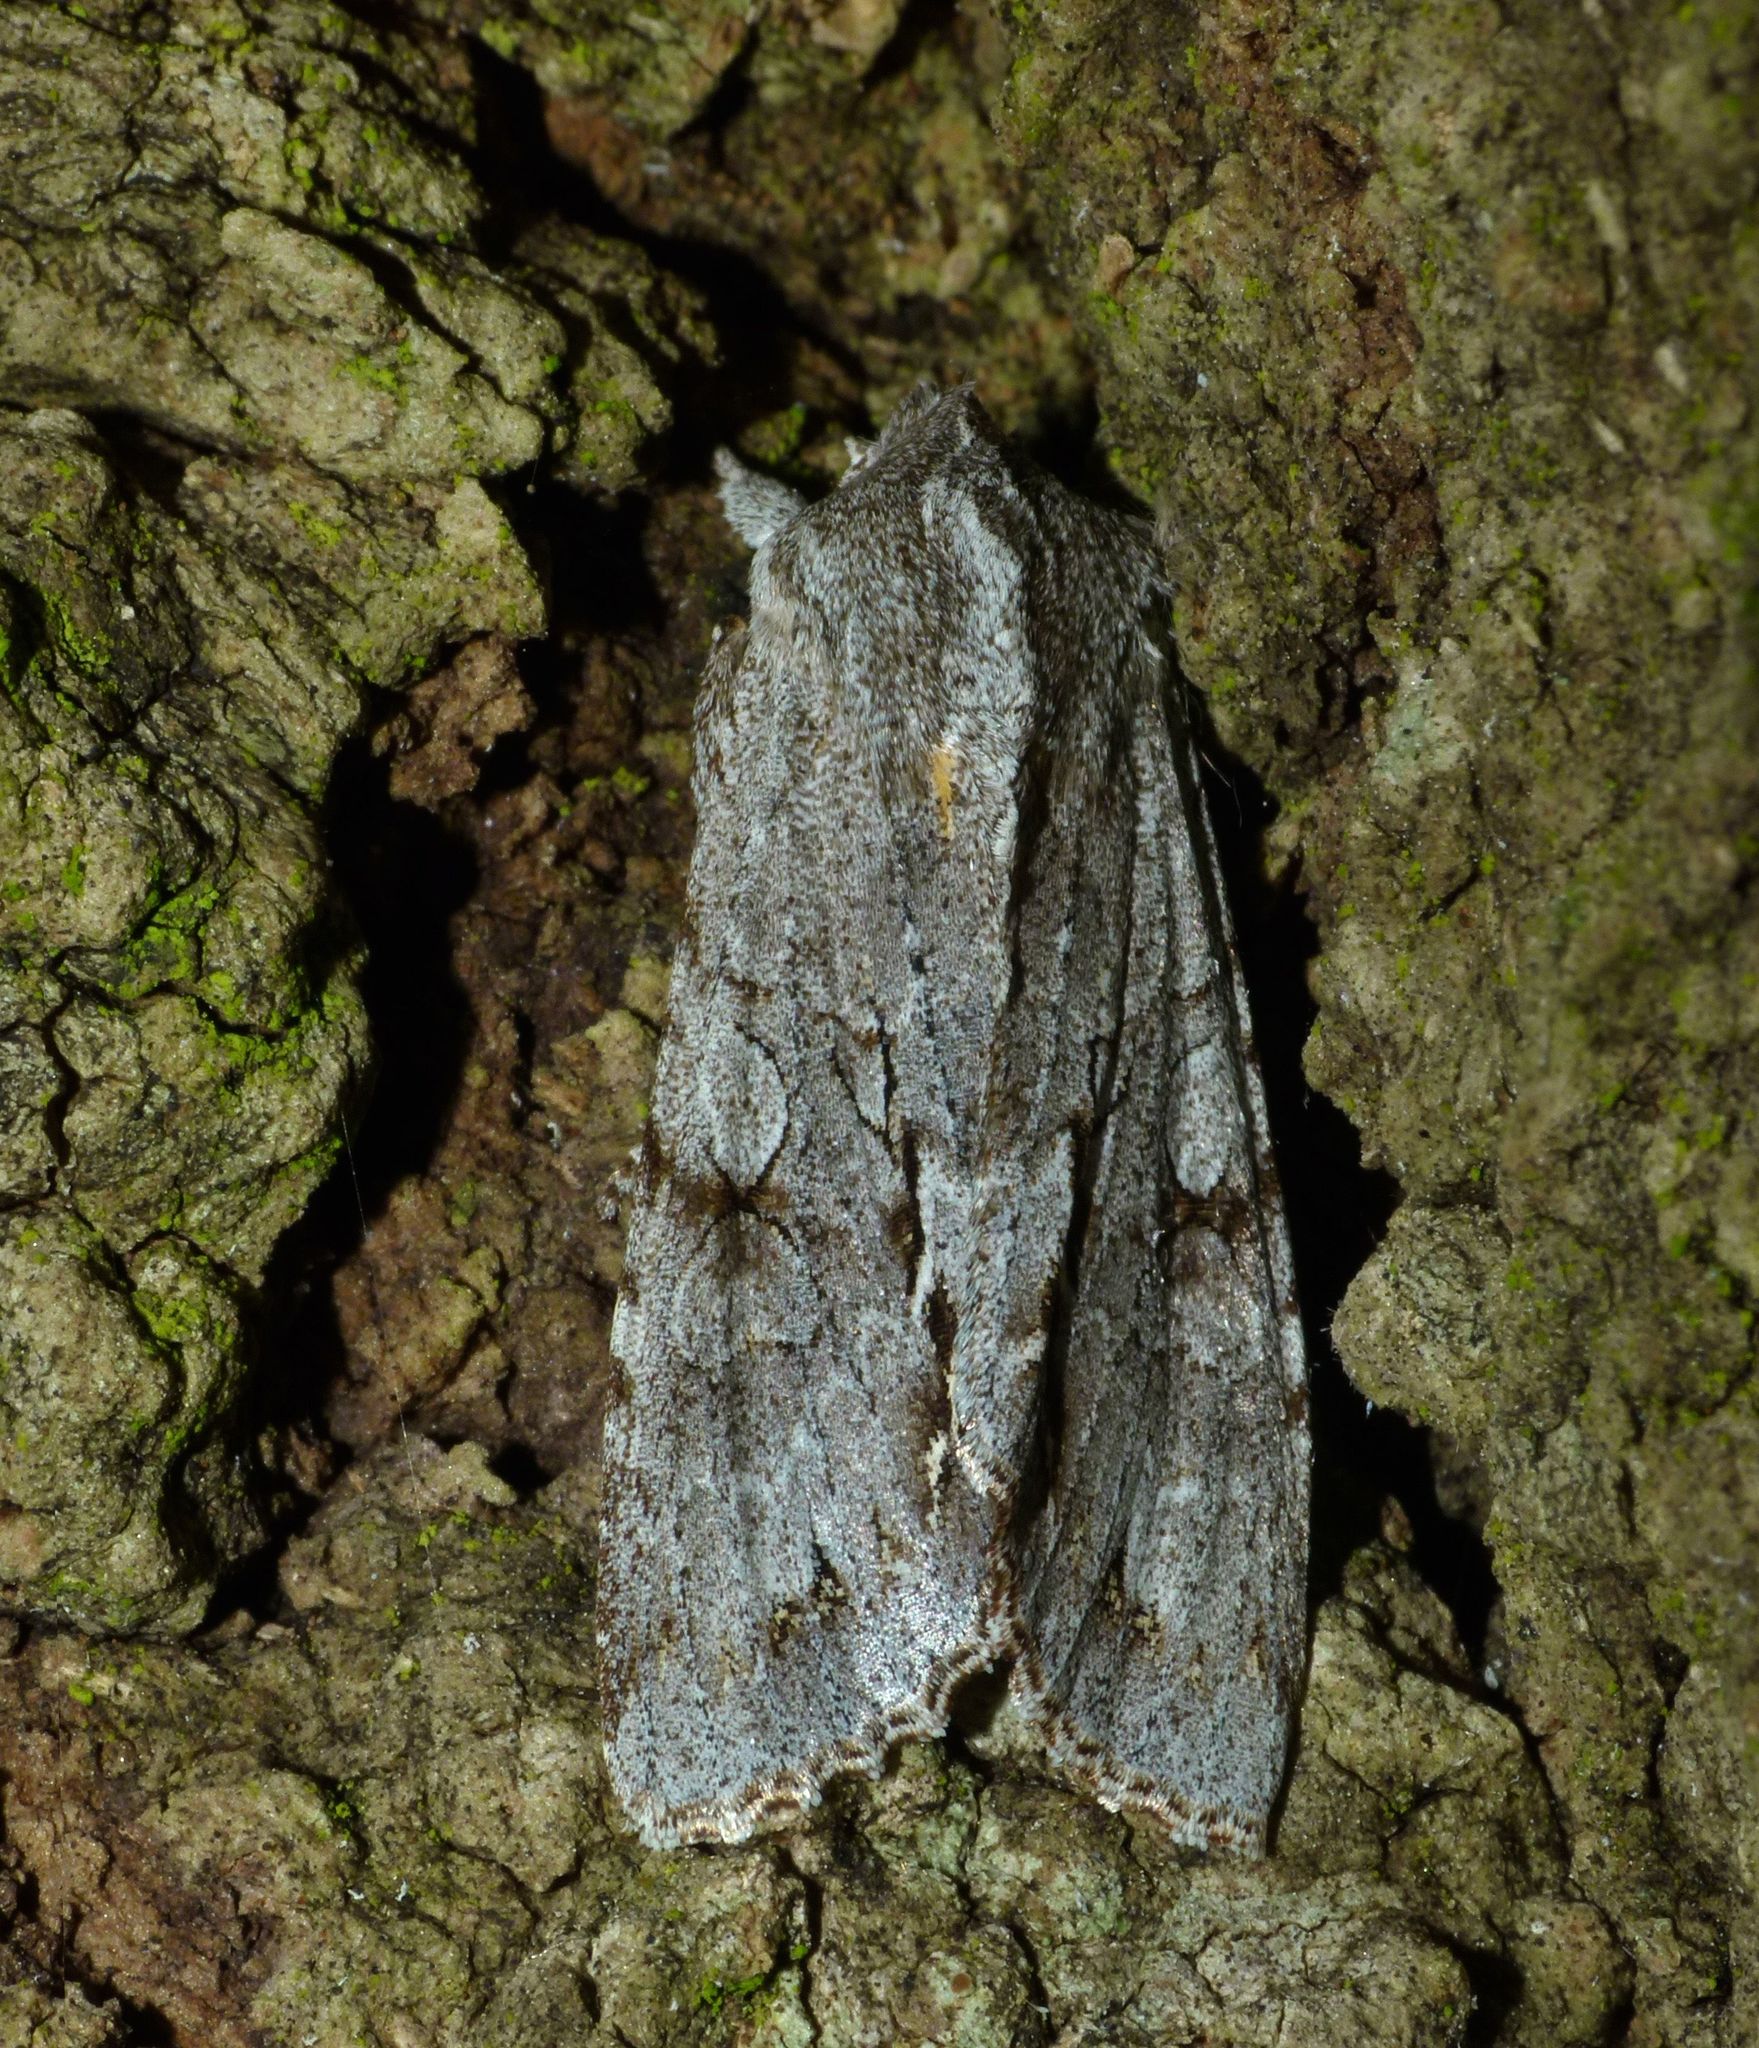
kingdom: Animalia
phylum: Arthropoda
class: Insecta
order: Lepidoptera
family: Noctuidae
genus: Ichneutica
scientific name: Ichneutica
